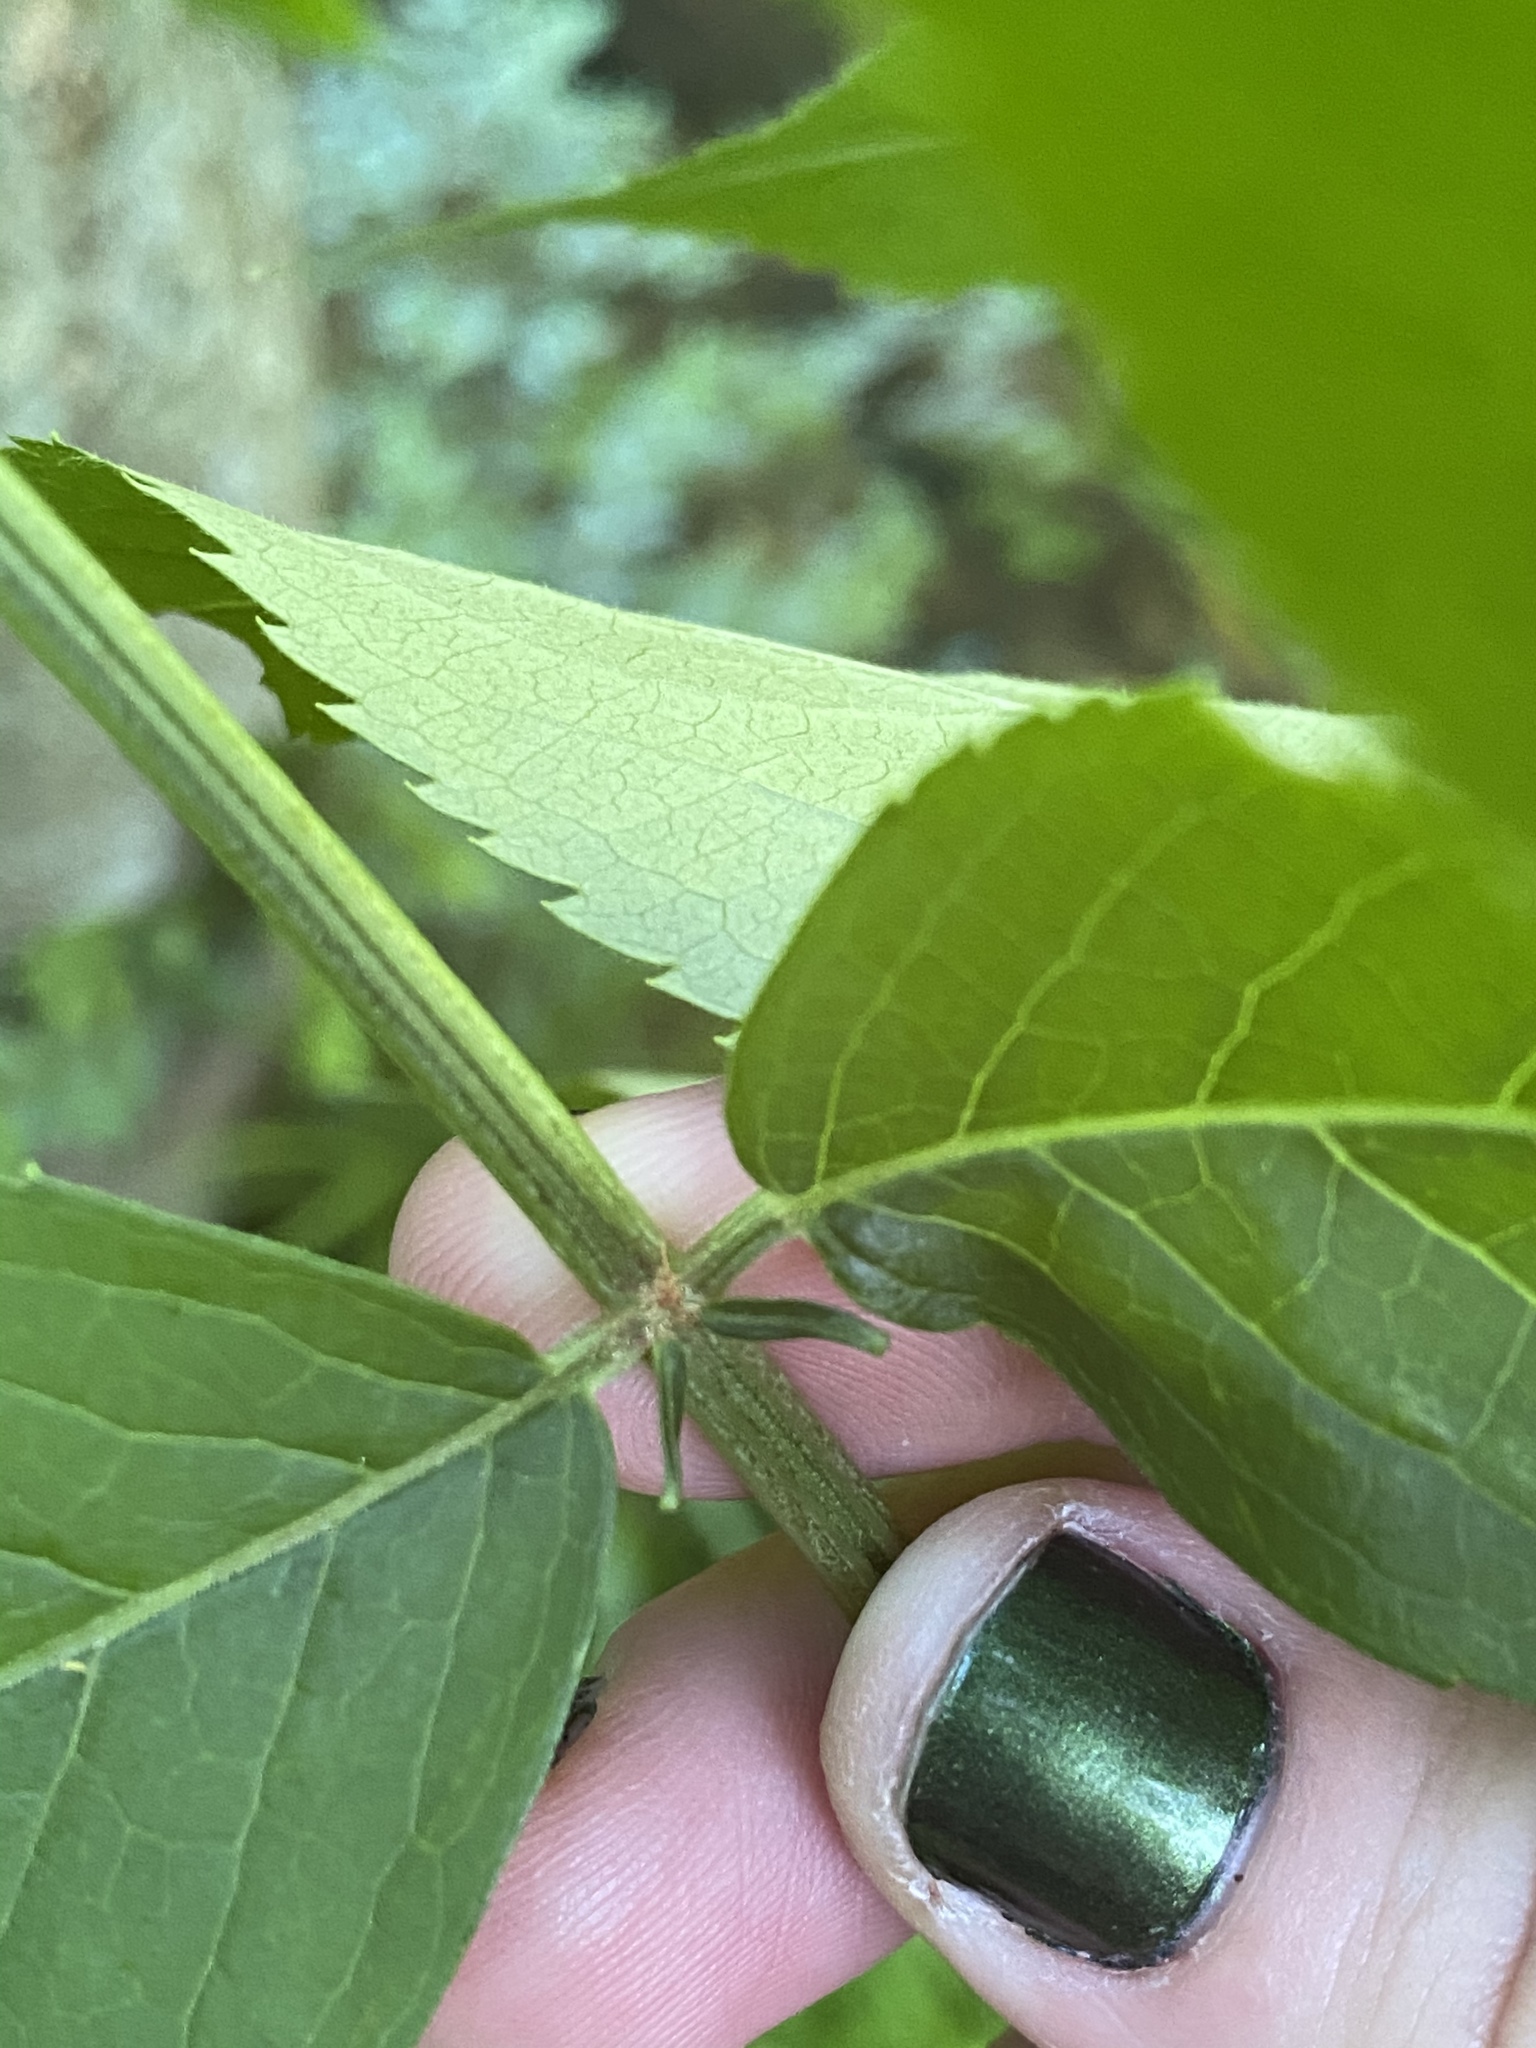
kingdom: Plantae
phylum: Tracheophyta
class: Magnoliopsida
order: Dipsacales
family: Viburnaceae
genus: Sambucus
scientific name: Sambucus canadensis
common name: American elder
